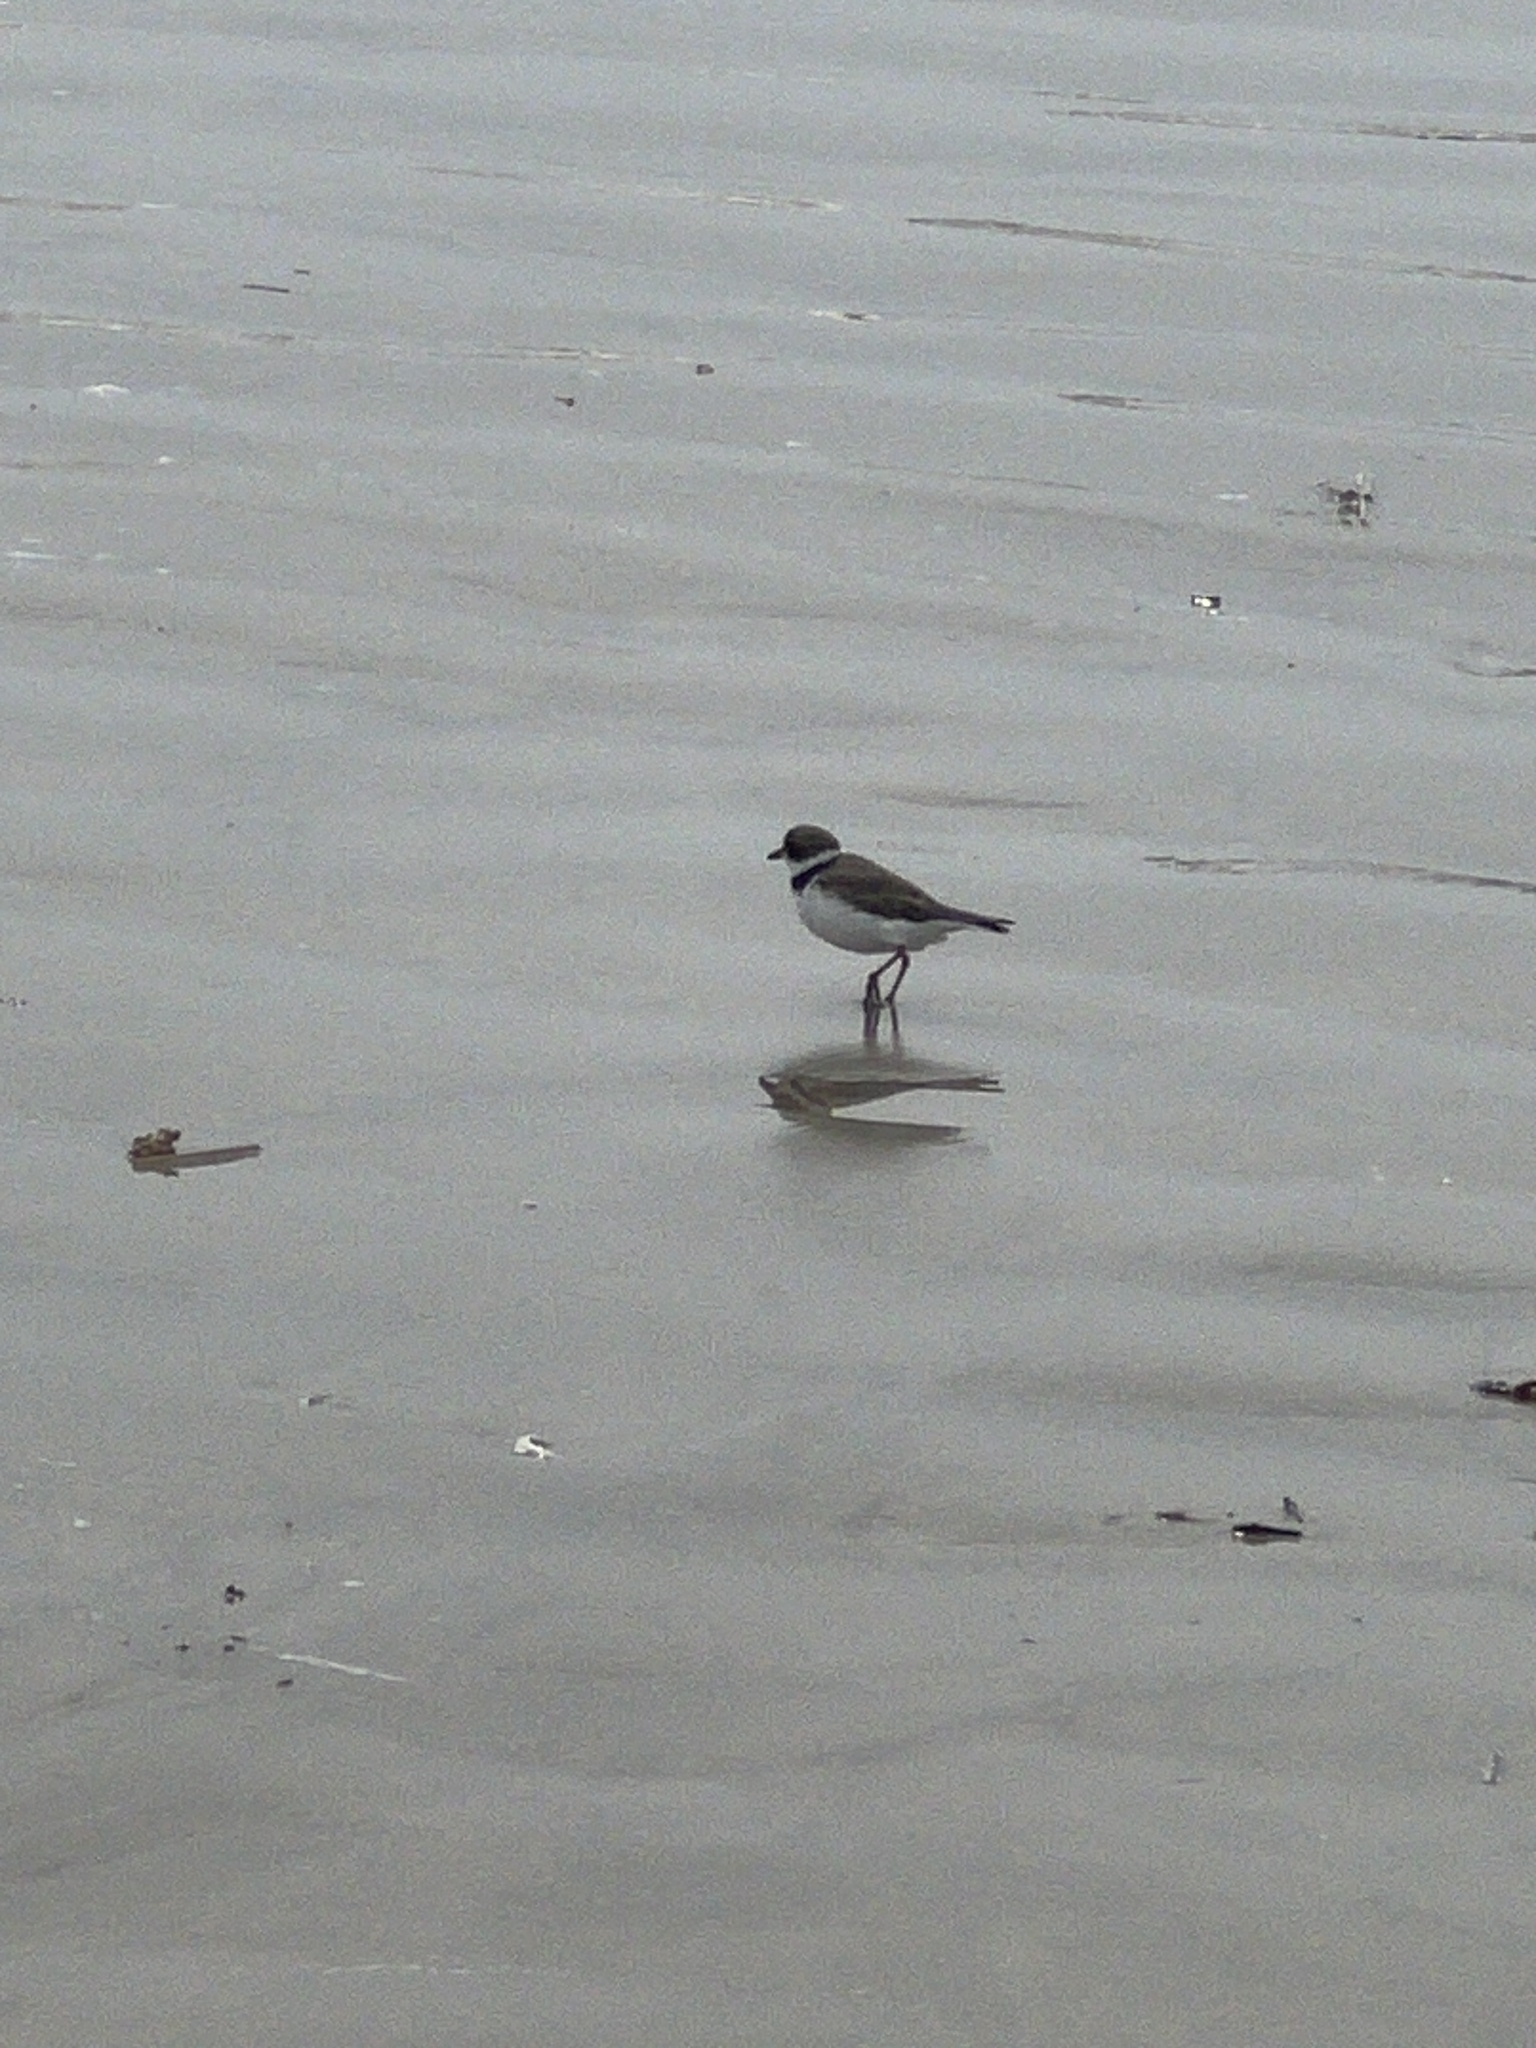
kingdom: Animalia
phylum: Chordata
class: Aves
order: Charadriiformes
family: Charadriidae
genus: Charadrius
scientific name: Charadrius semipalmatus
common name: Semipalmated plover
